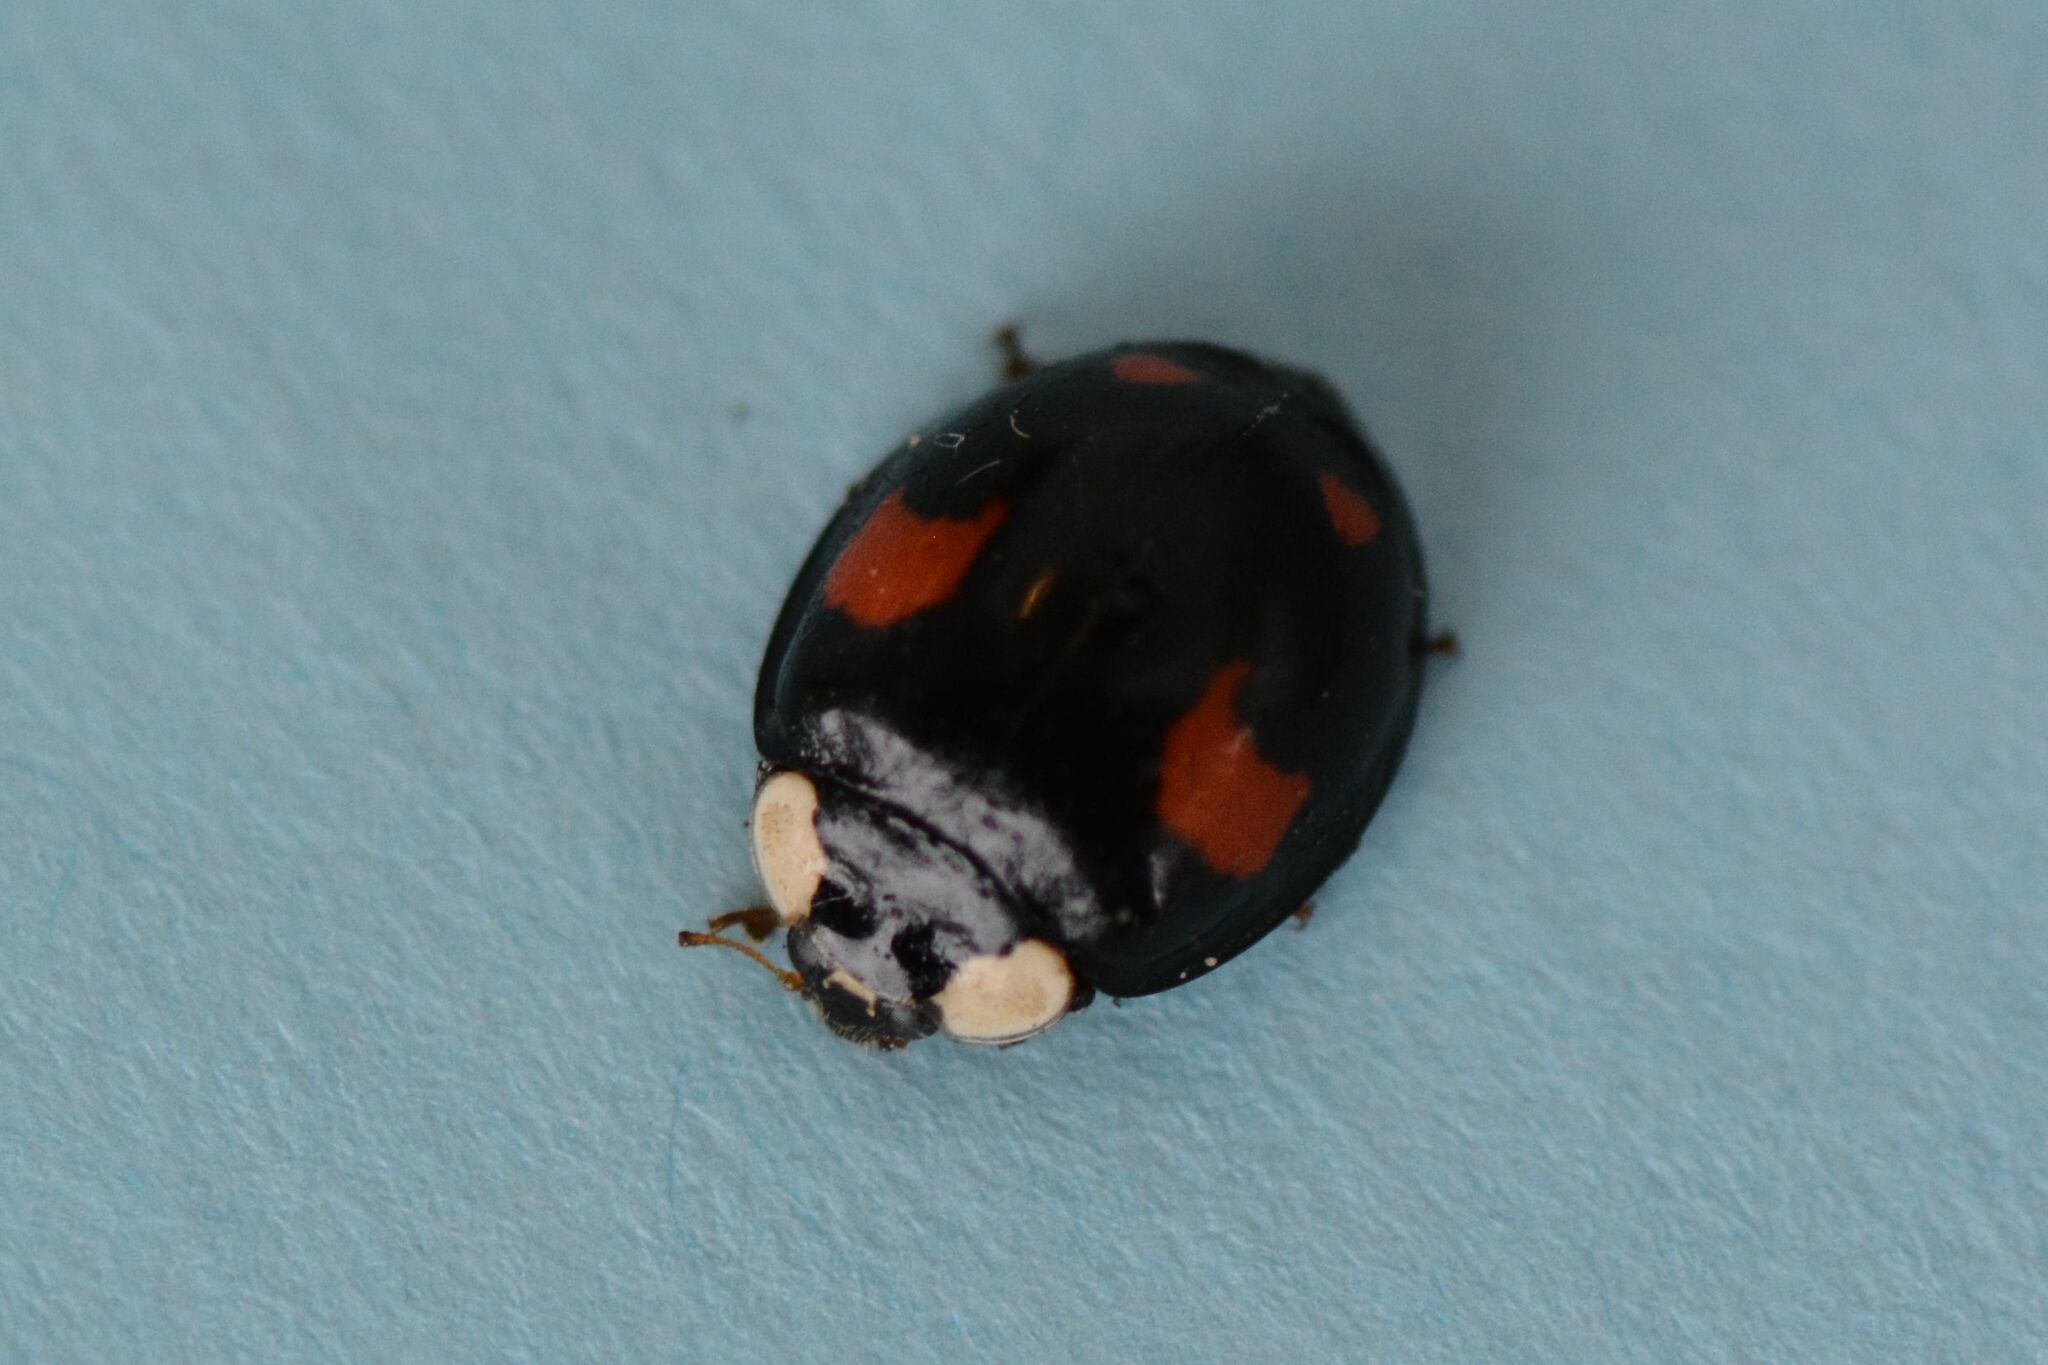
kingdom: Animalia
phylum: Arthropoda
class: Insecta
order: Coleoptera
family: Coccinellidae
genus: Harmonia
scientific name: Harmonia axyridis
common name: Harlequin ladybird
